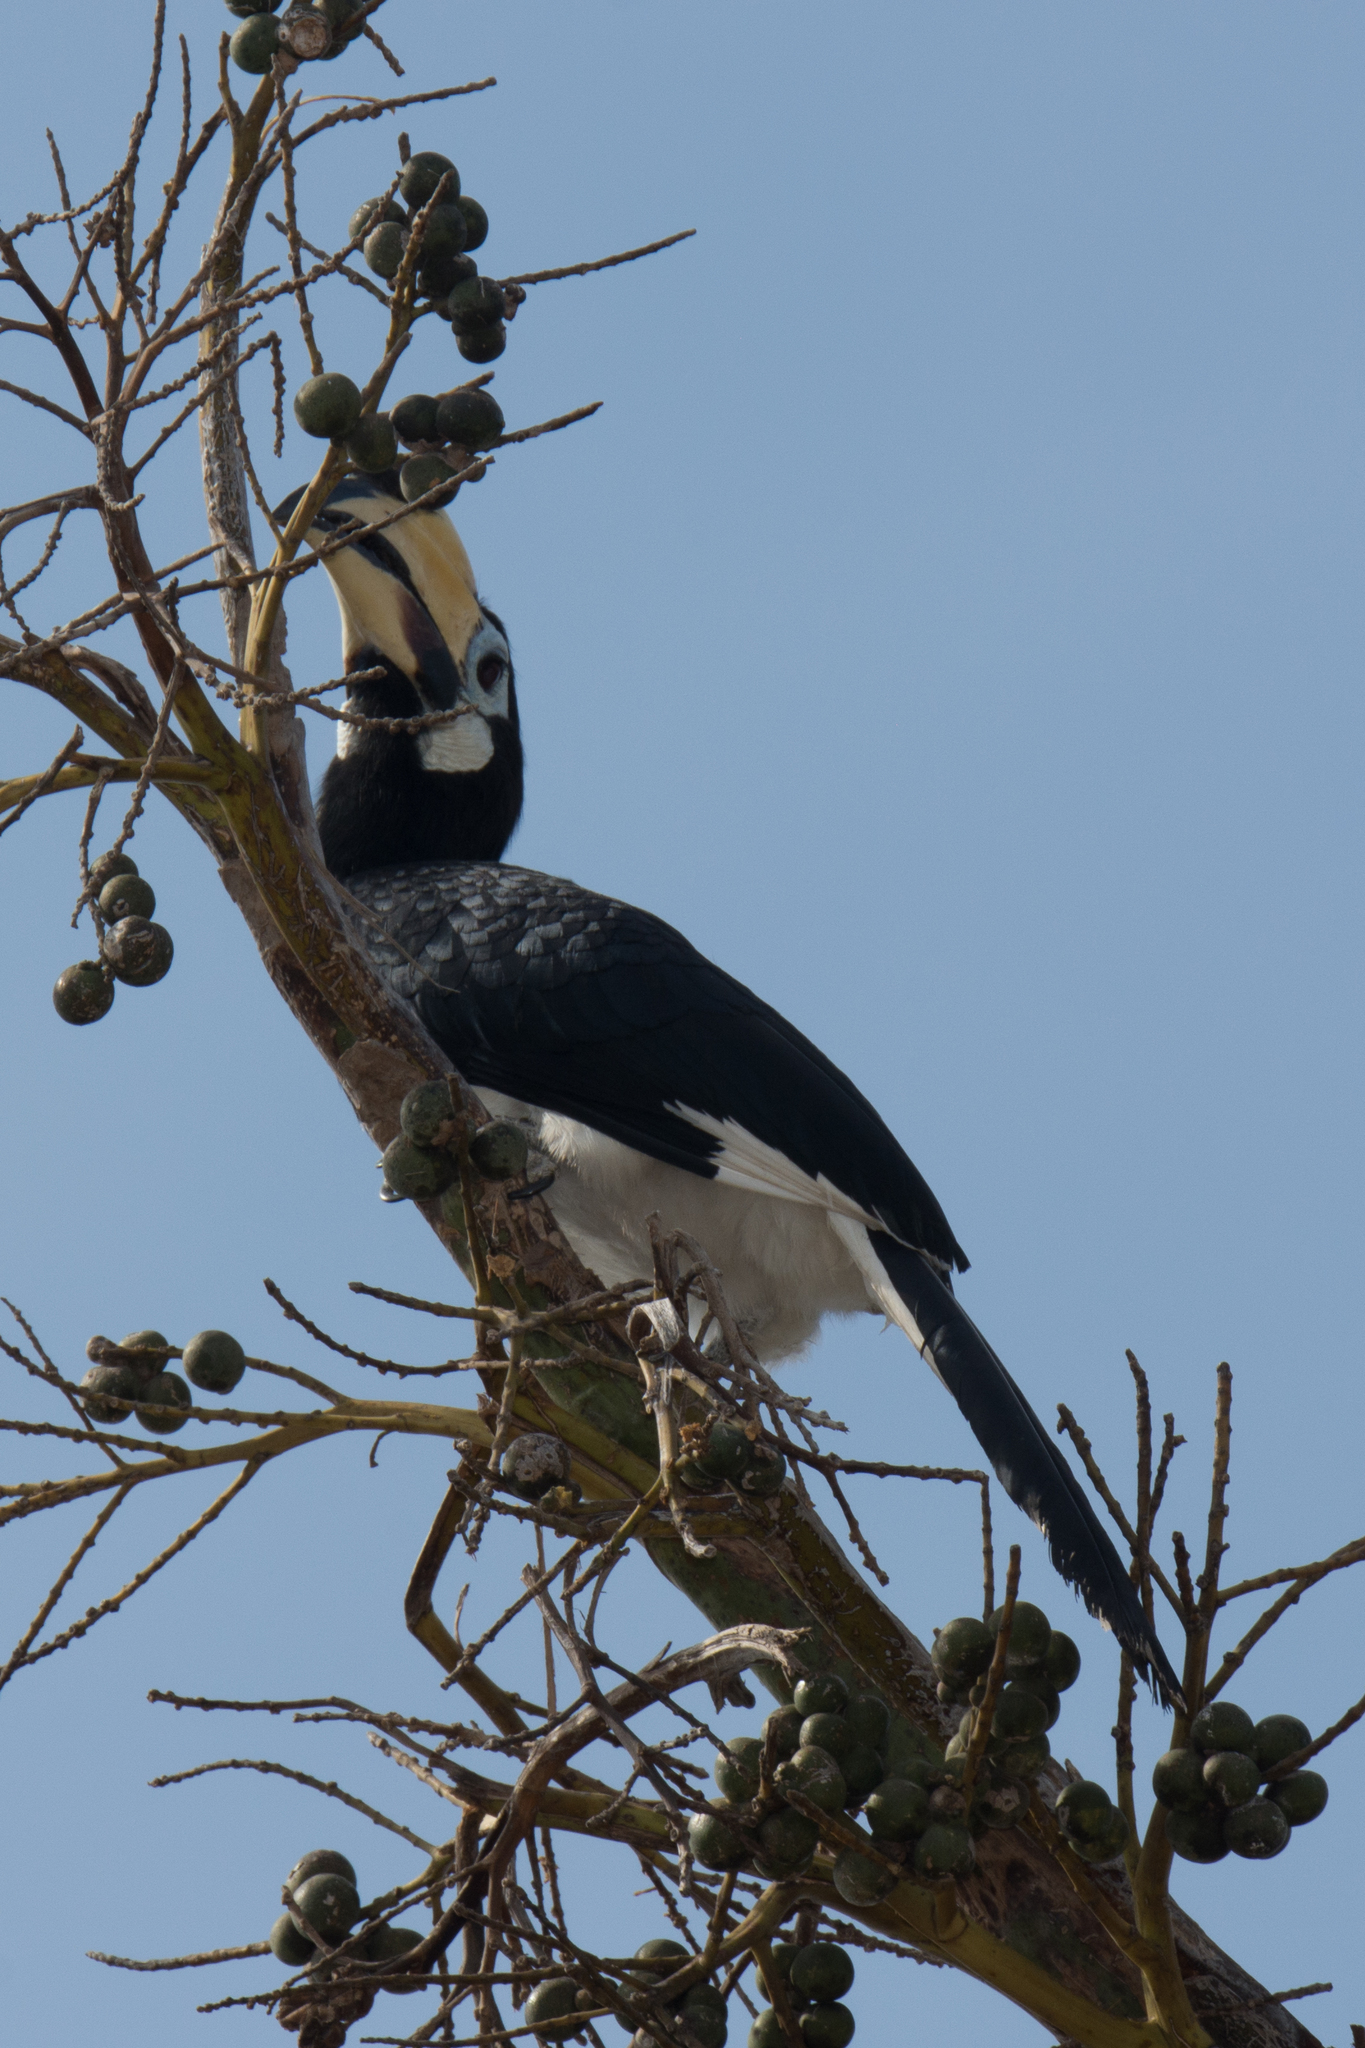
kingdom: Animalia
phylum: Chordata
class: Aves
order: Bucerotiformes
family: Bucerotidae
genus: Anthracoceros
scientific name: Anthracoceros albirostris
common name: Oriental pied-hornbill
